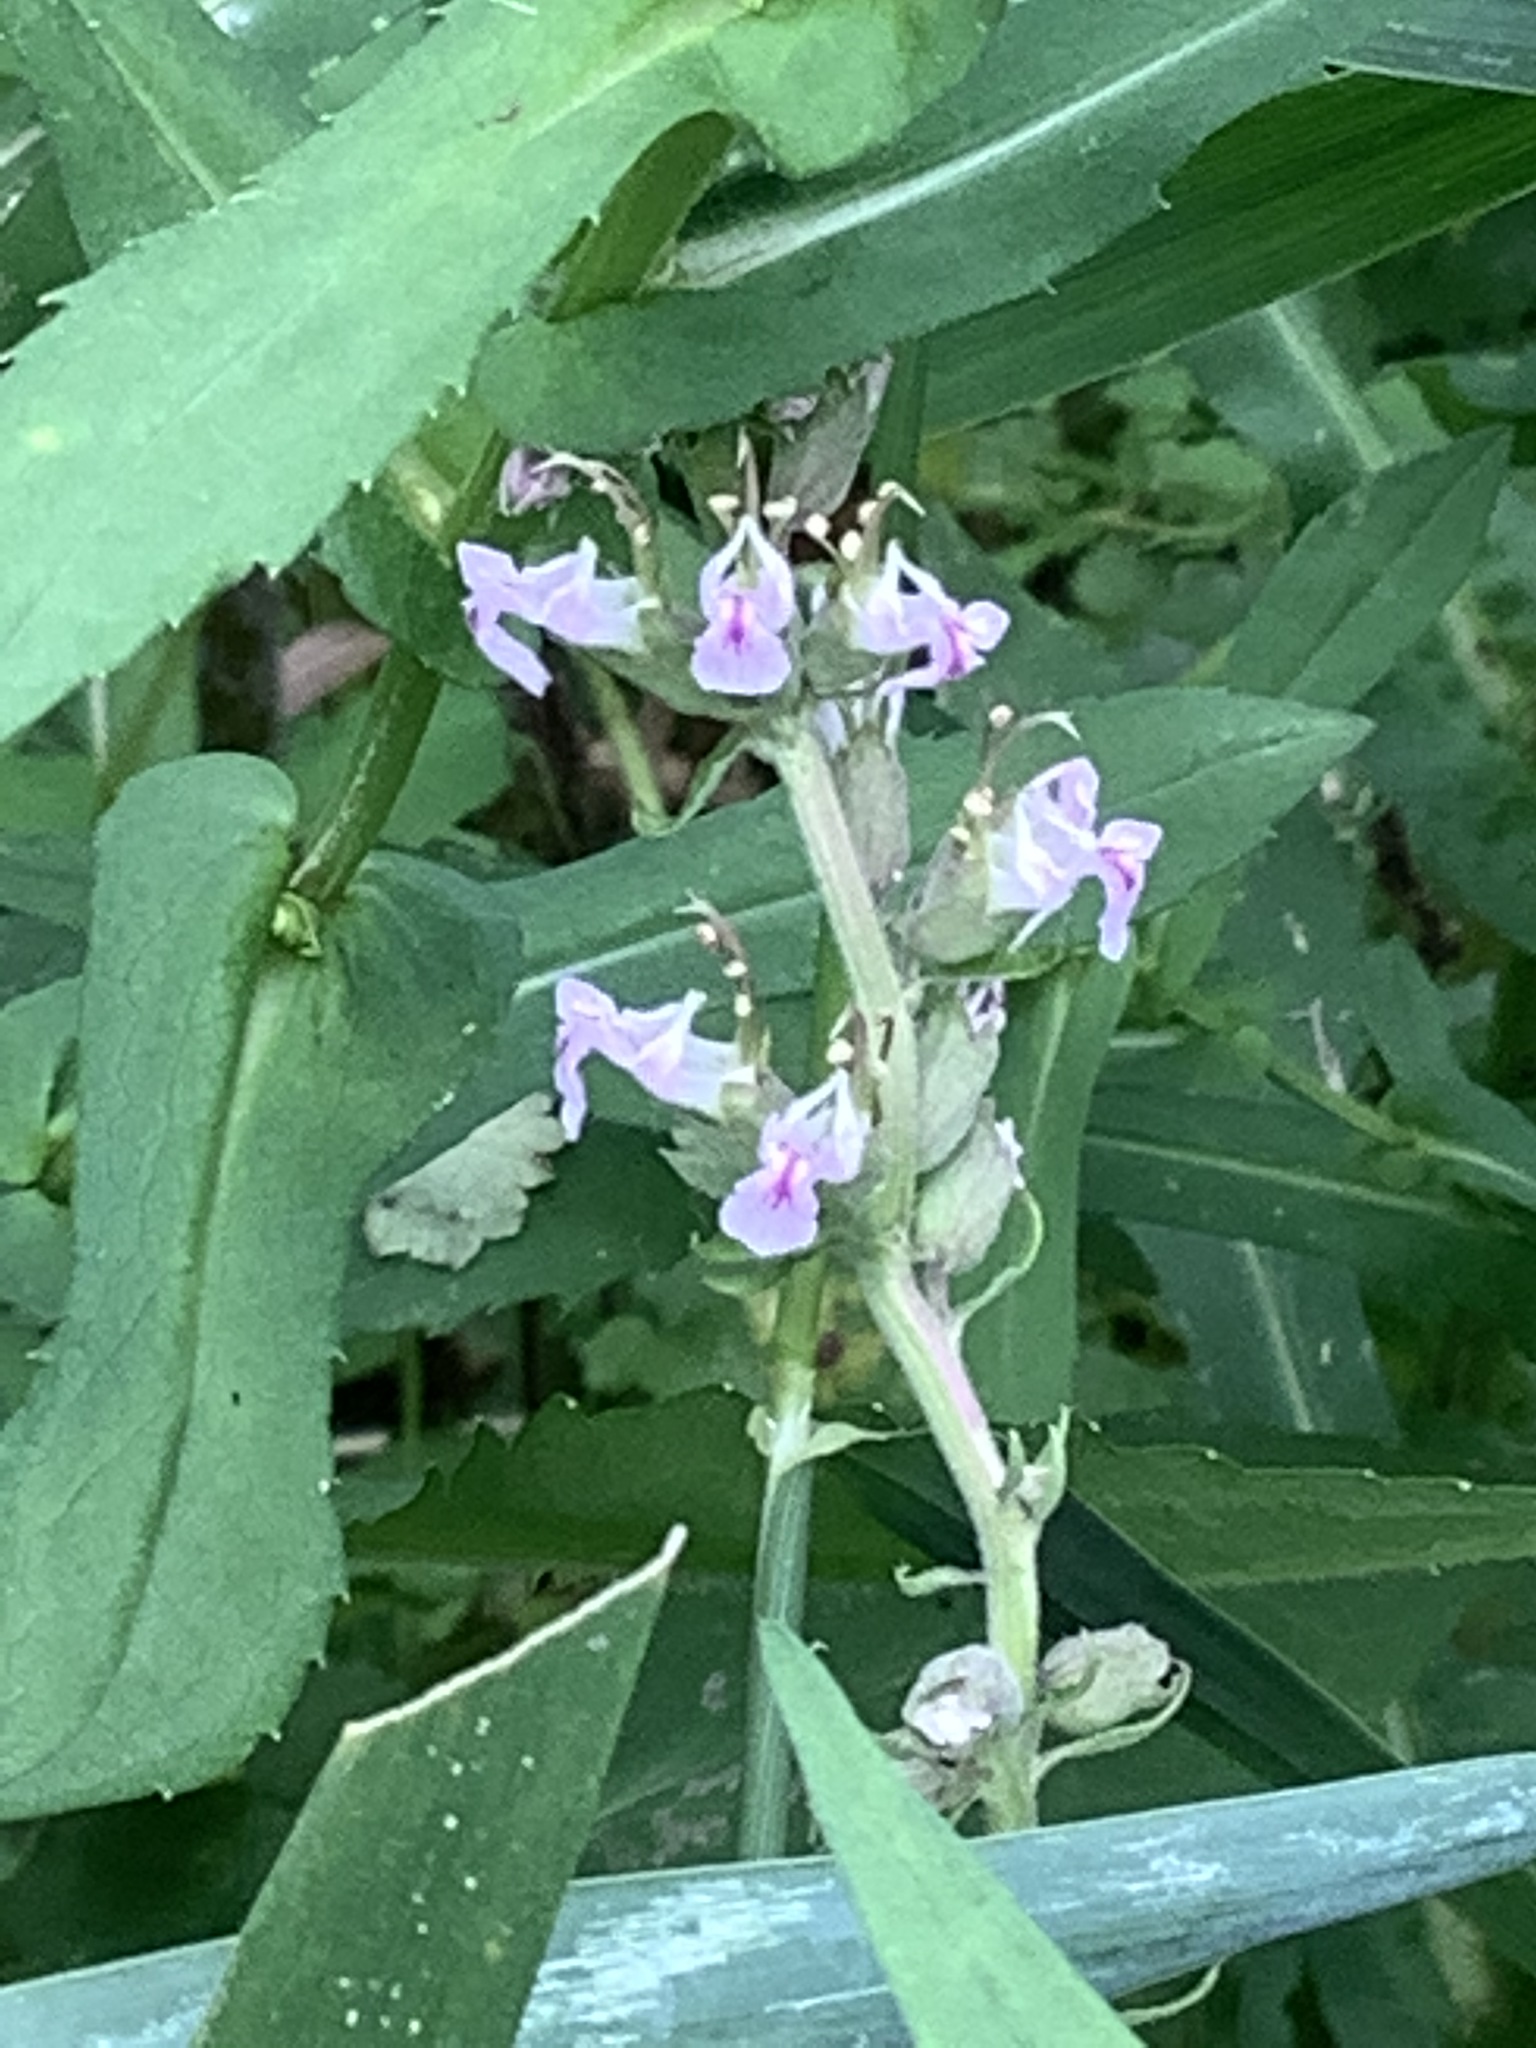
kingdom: Plantae
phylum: Tracheophyta
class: Magnoliopsida
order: Lamiales
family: Lamiaceae
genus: Teucrium
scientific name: Teucrium canadense
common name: American germander
